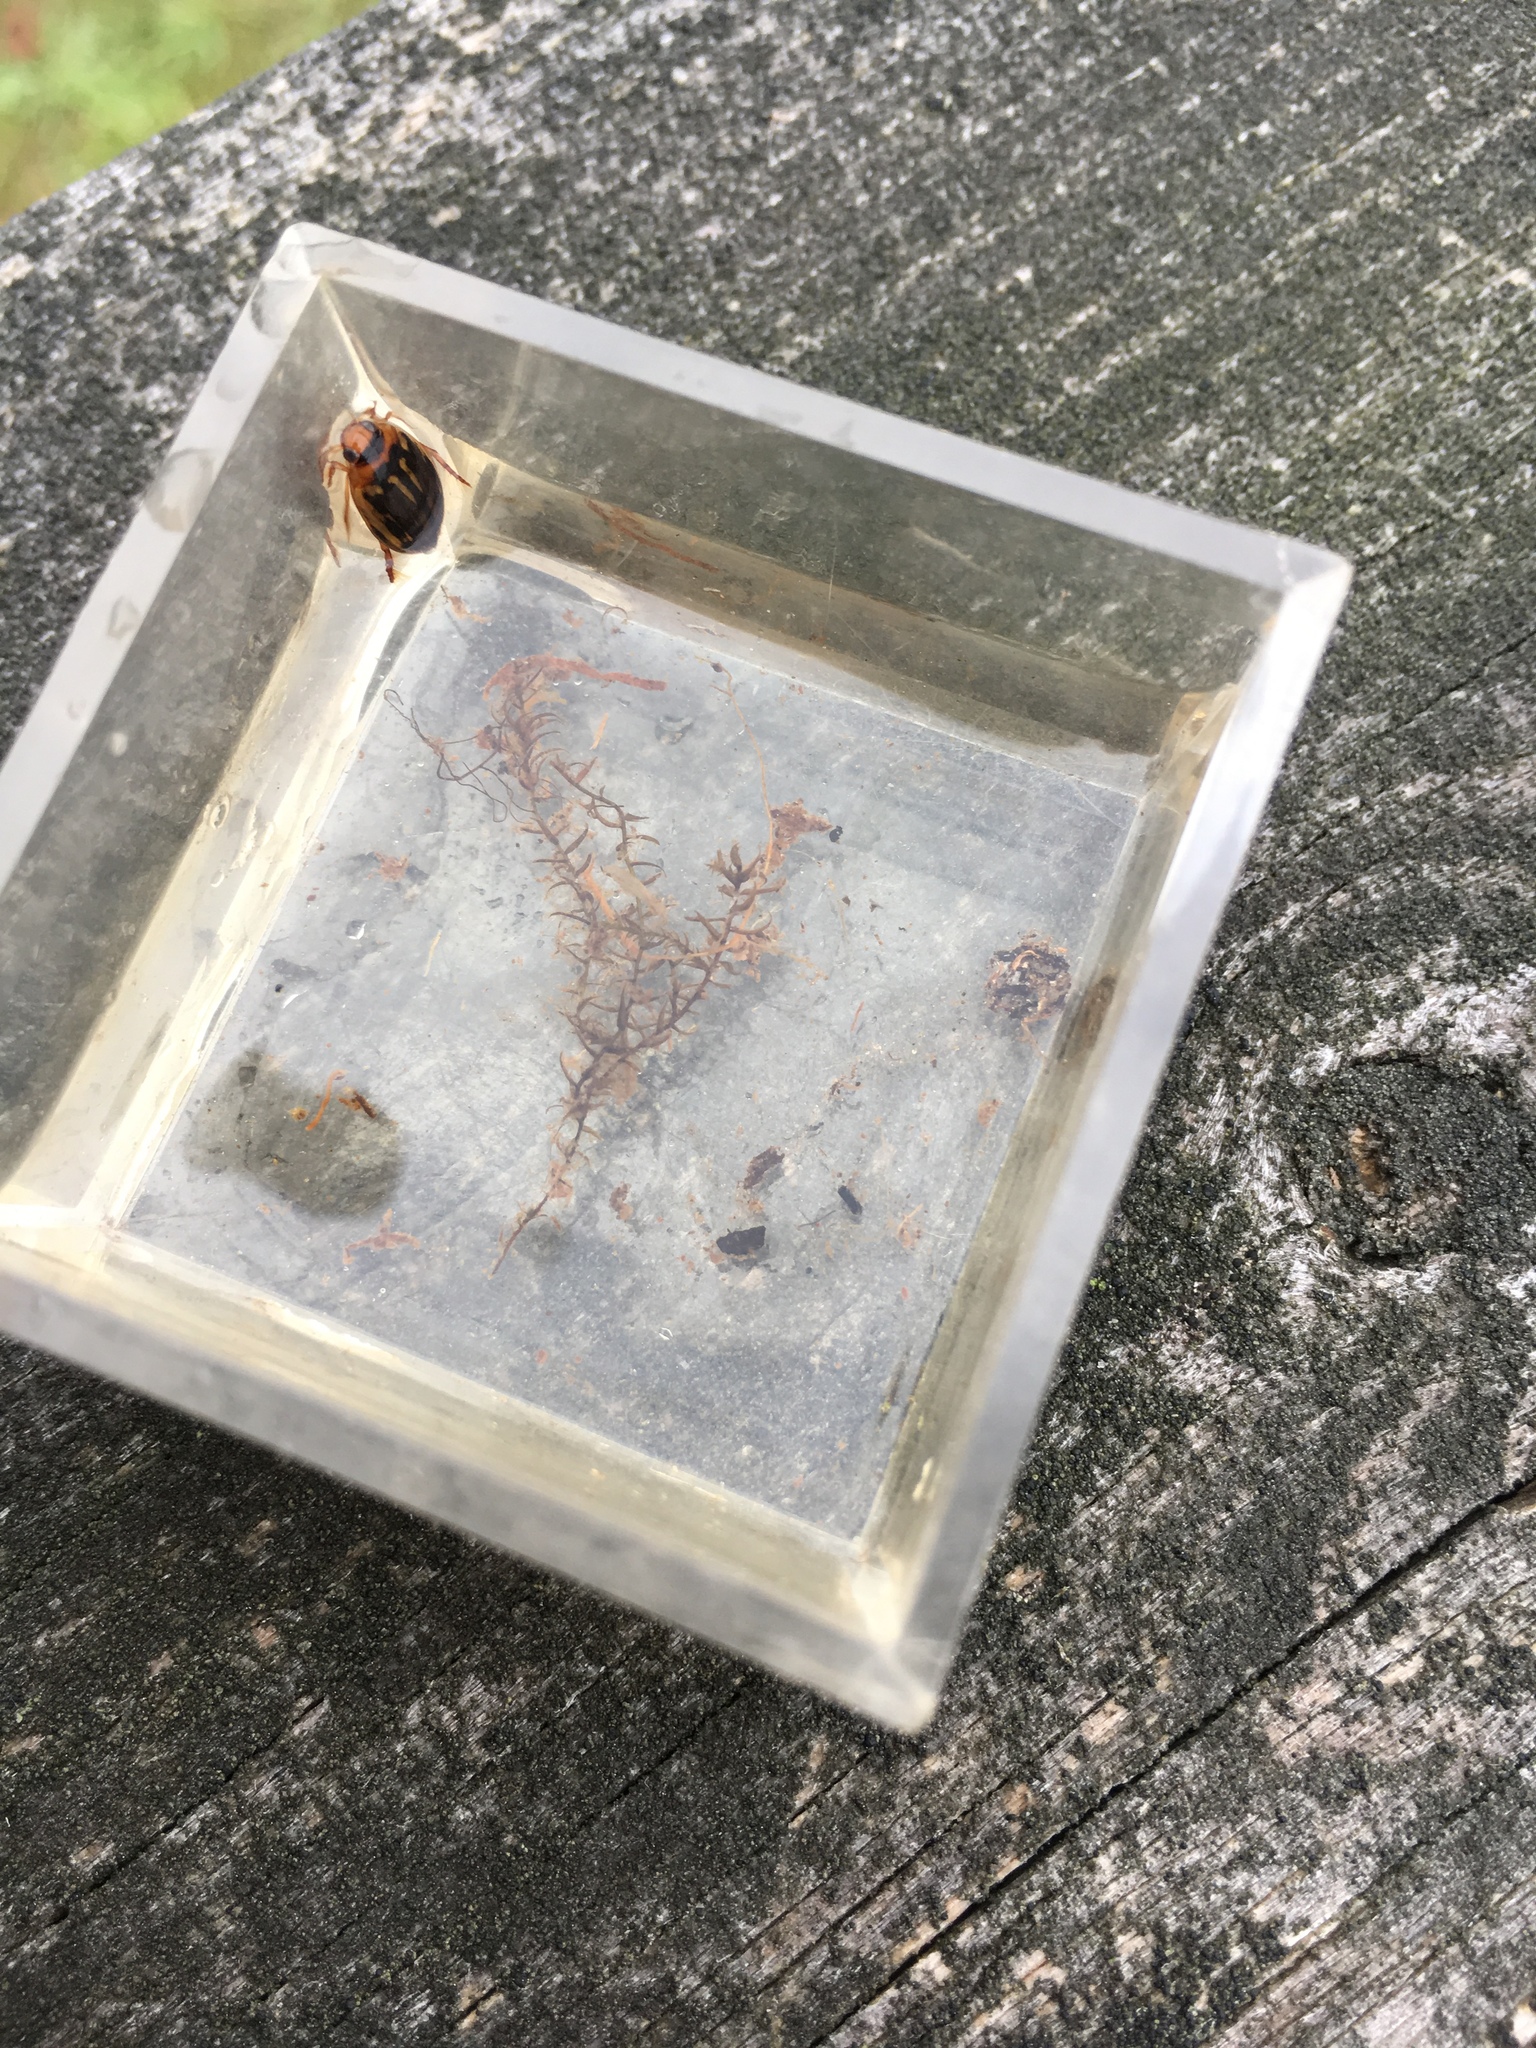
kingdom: Animalia
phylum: Arthropoda
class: Insecta
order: Coleoptera
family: Dytiscidae
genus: Coptotomus
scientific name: Coptotomus longulus
